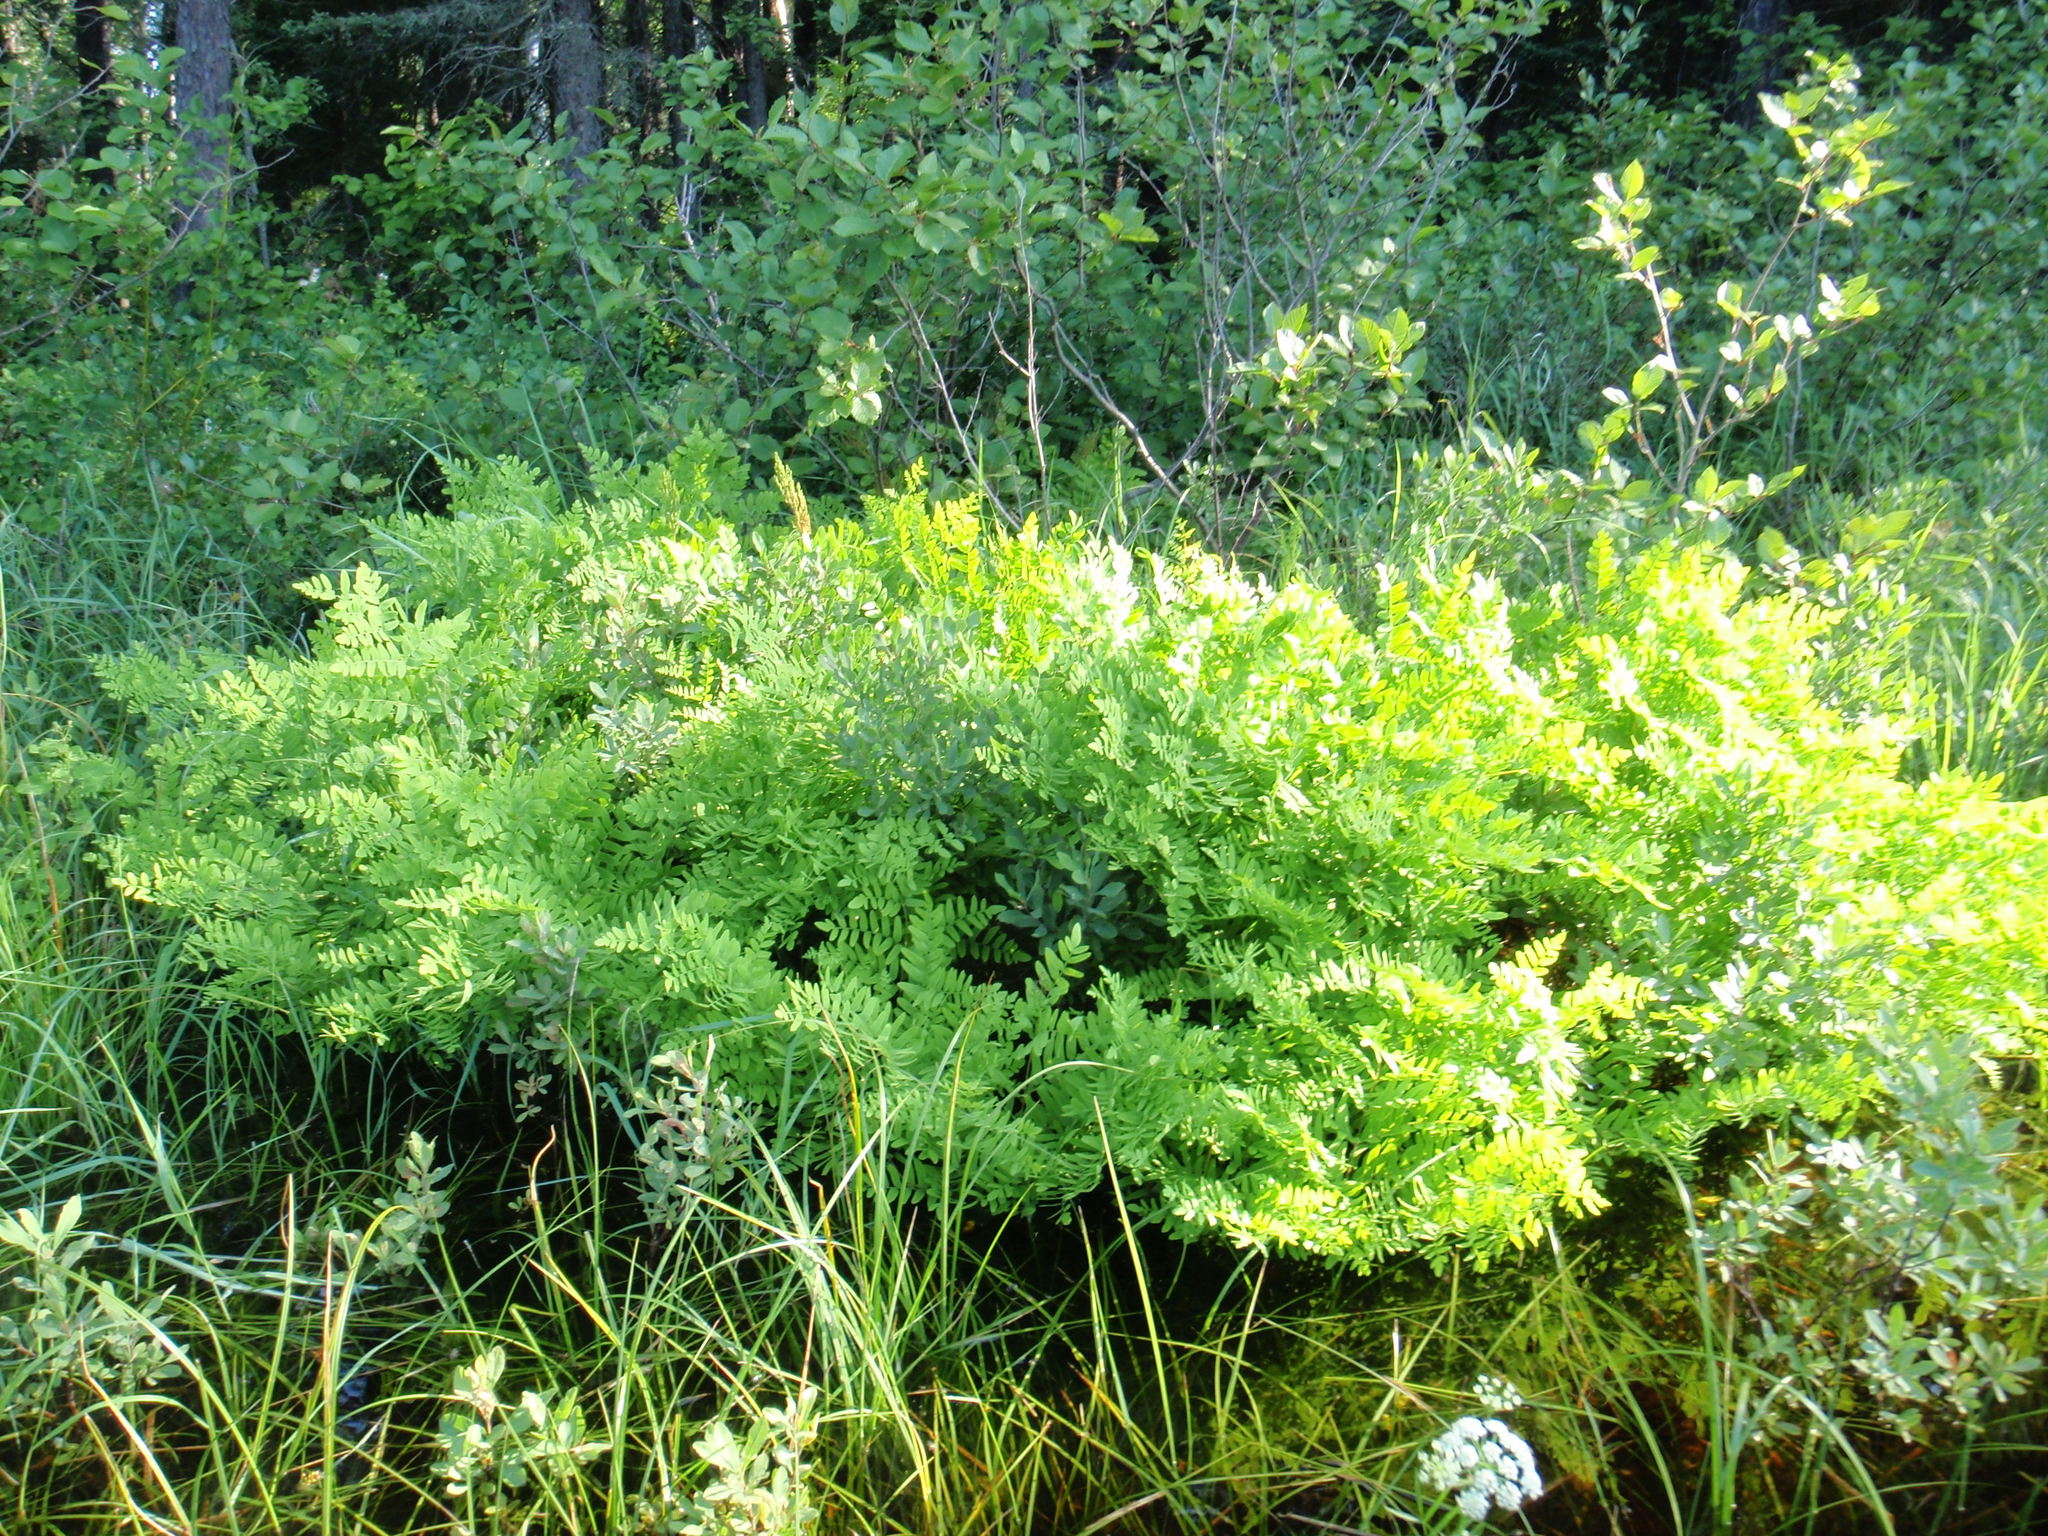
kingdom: Plantae
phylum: Tracheophyta
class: Polypodiopsida
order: Osmundales
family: Osmundaceae
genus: Osmunda
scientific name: Osmunda spectabilis
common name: American royal fern
